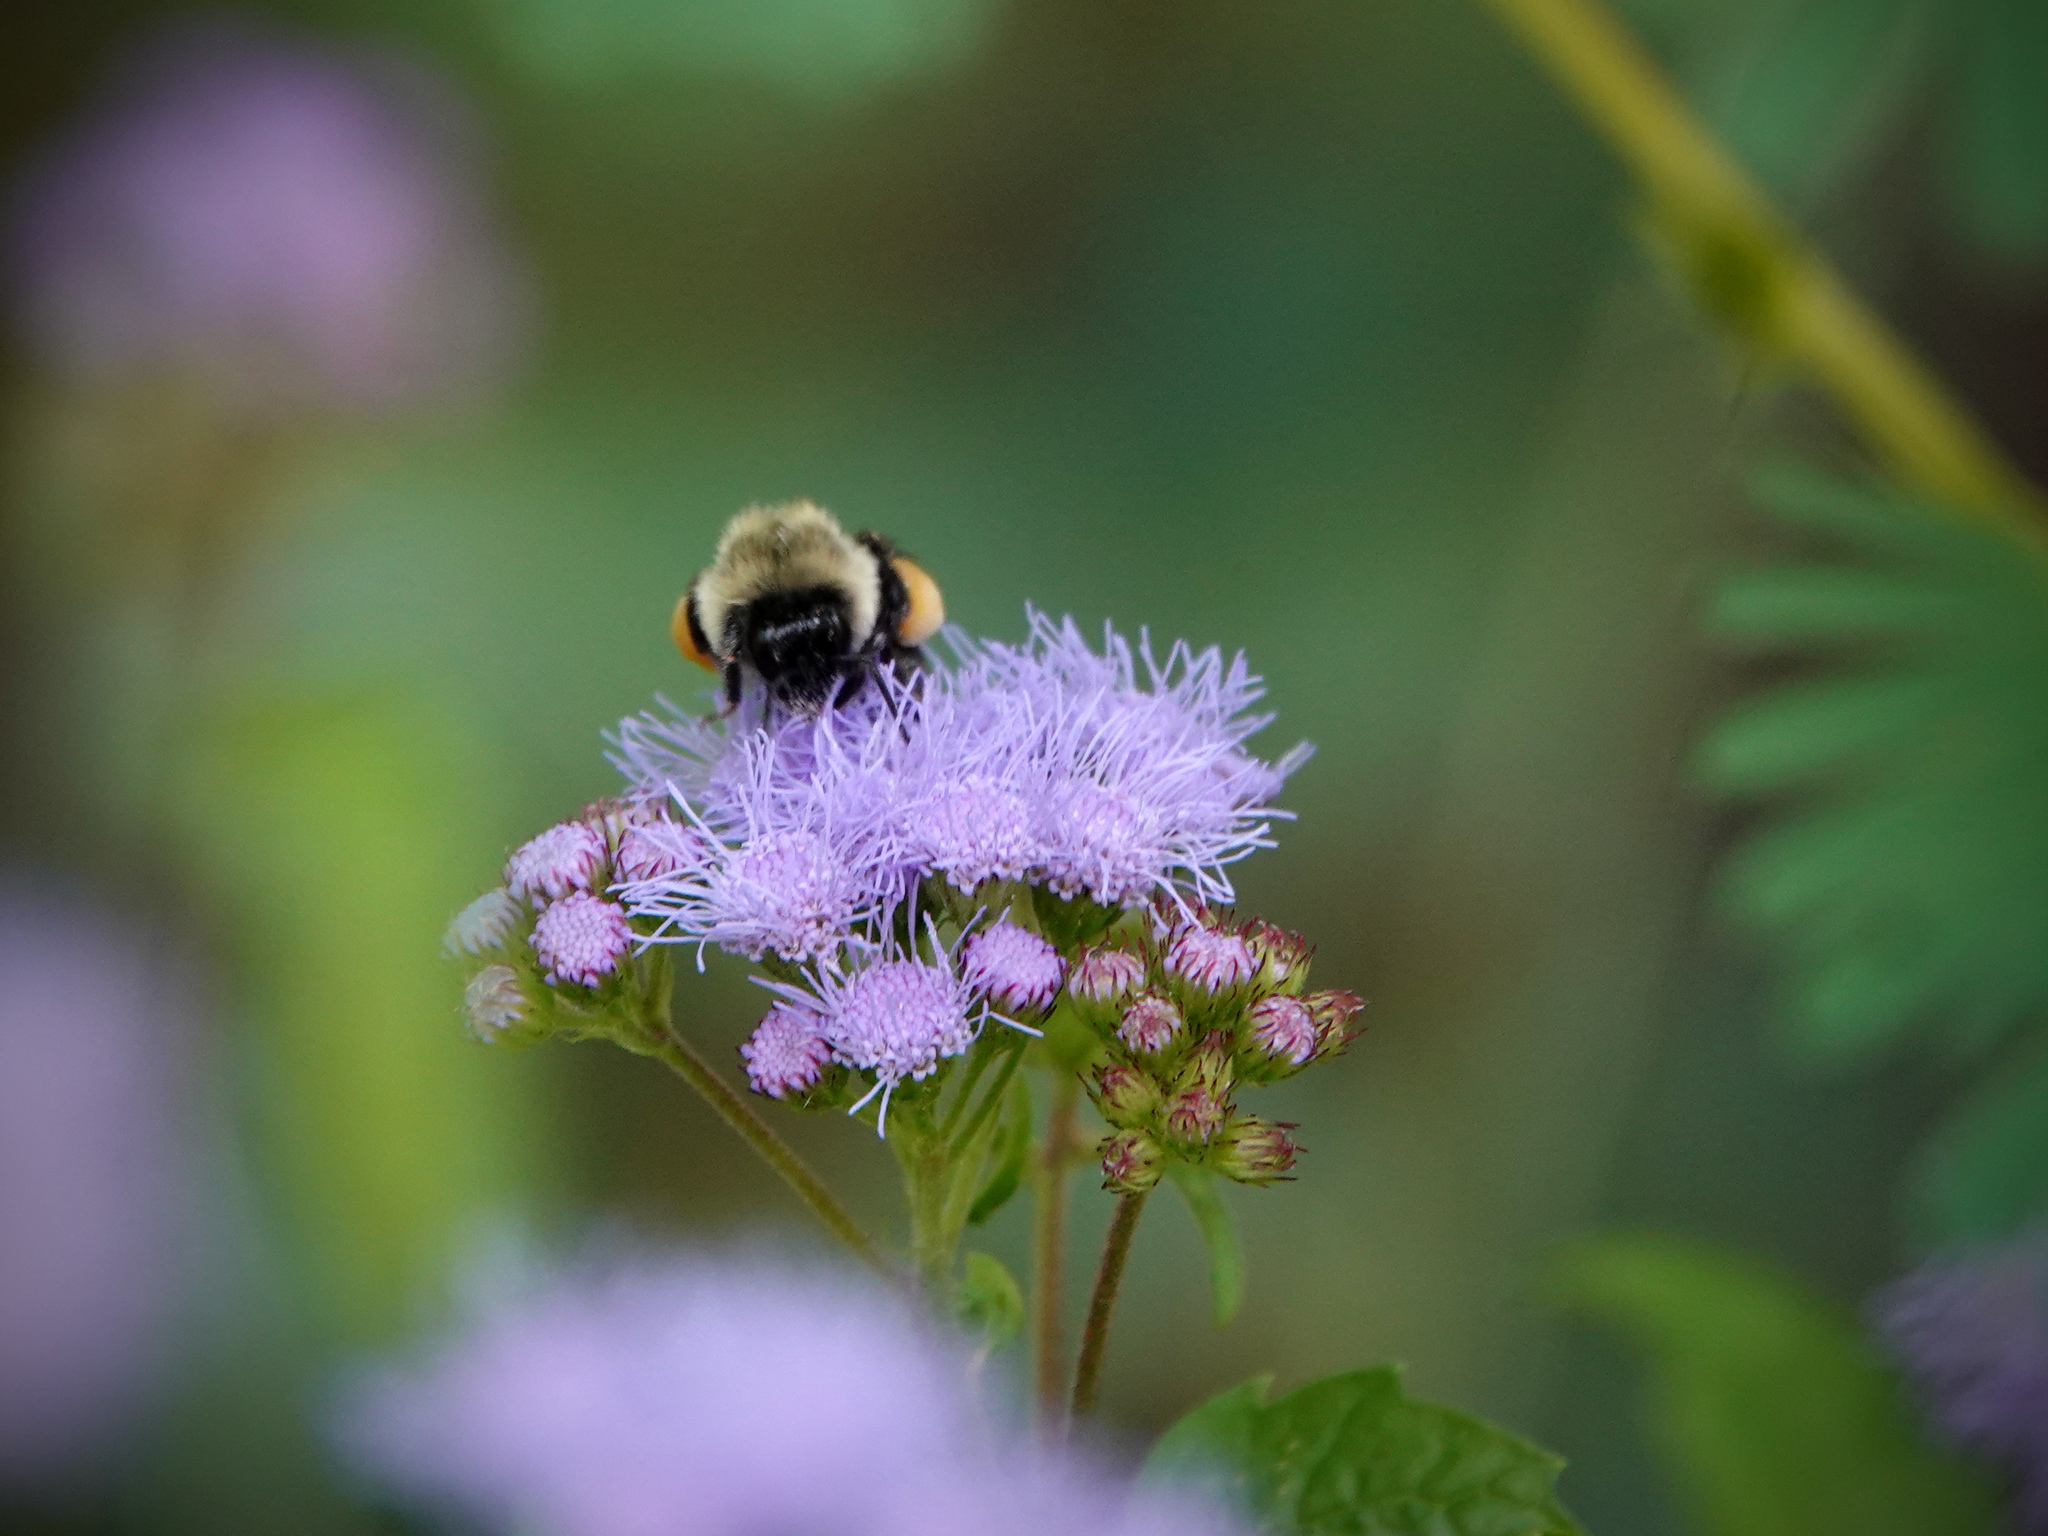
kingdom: Animalia
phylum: Arthropoda
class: Insecta
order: Hymenoptera
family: Apidae
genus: Bombus
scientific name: Bombus impatiens
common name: Common eastern bumble bee
